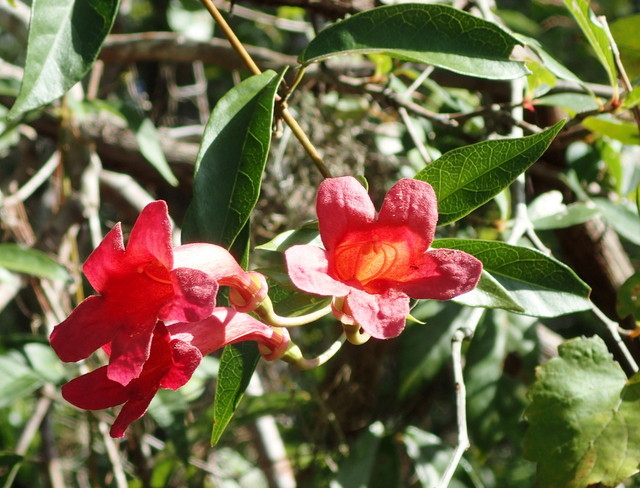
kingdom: Plantae
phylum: Tracheophyta
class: Magnoliopsida
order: Lamiales
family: Bignoniaceae
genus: Bignonia
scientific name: Bignonia capreolata
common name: Crossvine
